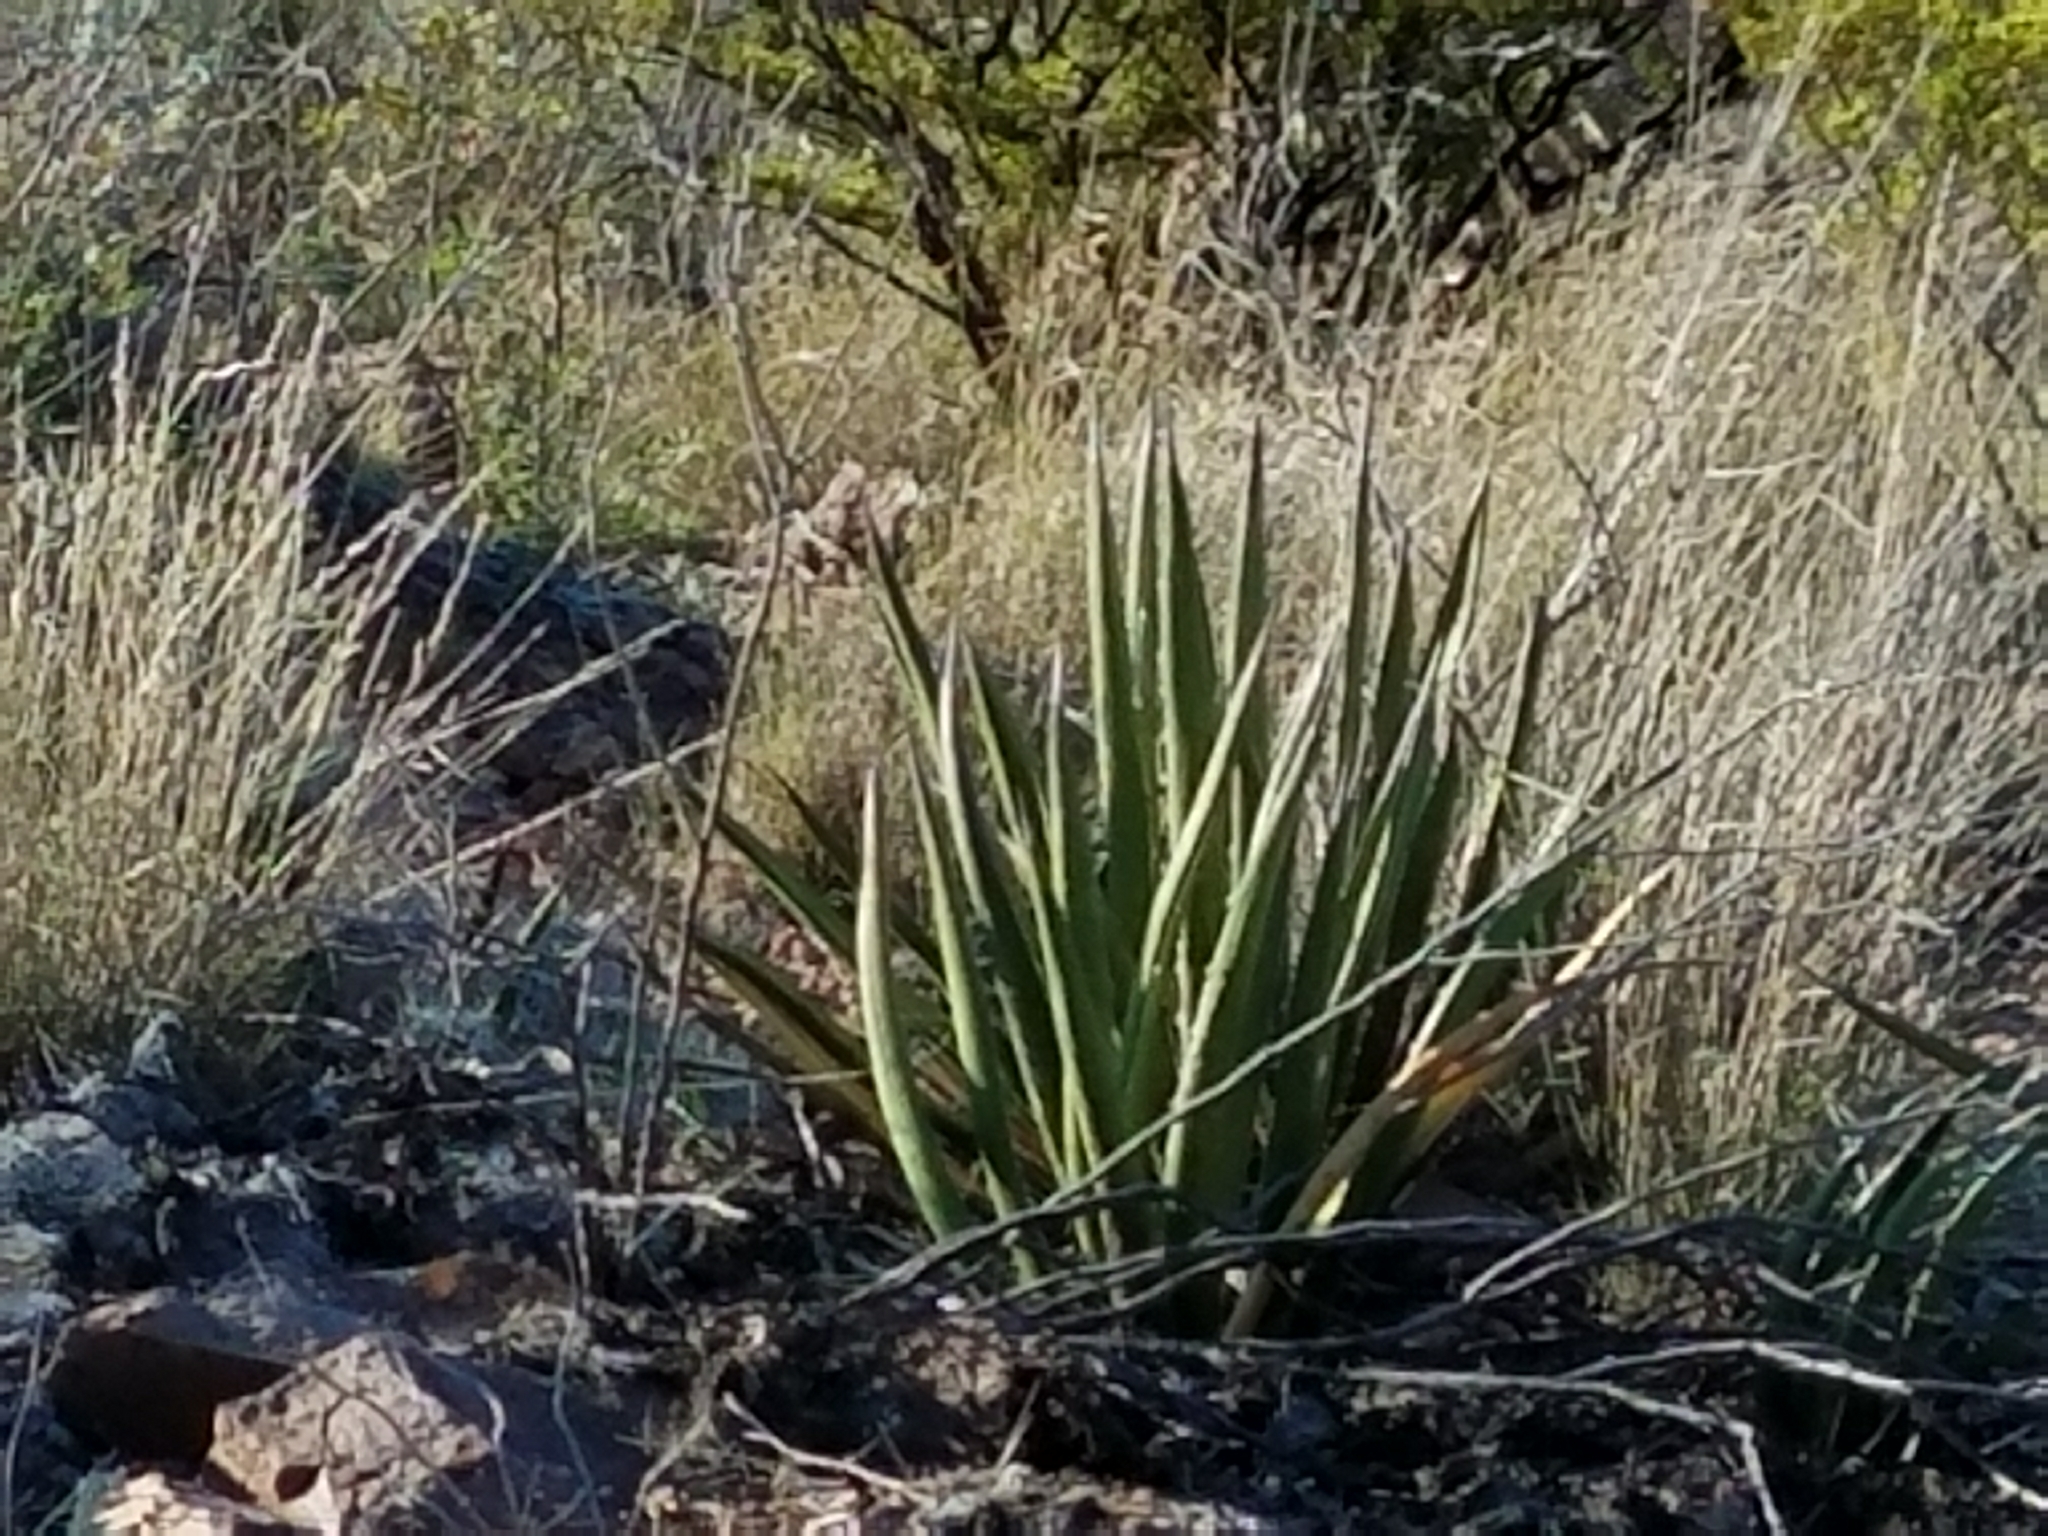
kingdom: Plantae
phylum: Tracheophyta
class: Liliopsida
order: Asparagales
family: Asparagaceae
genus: Agave
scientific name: Agave lechuguilla
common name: Lecheguilla agave
